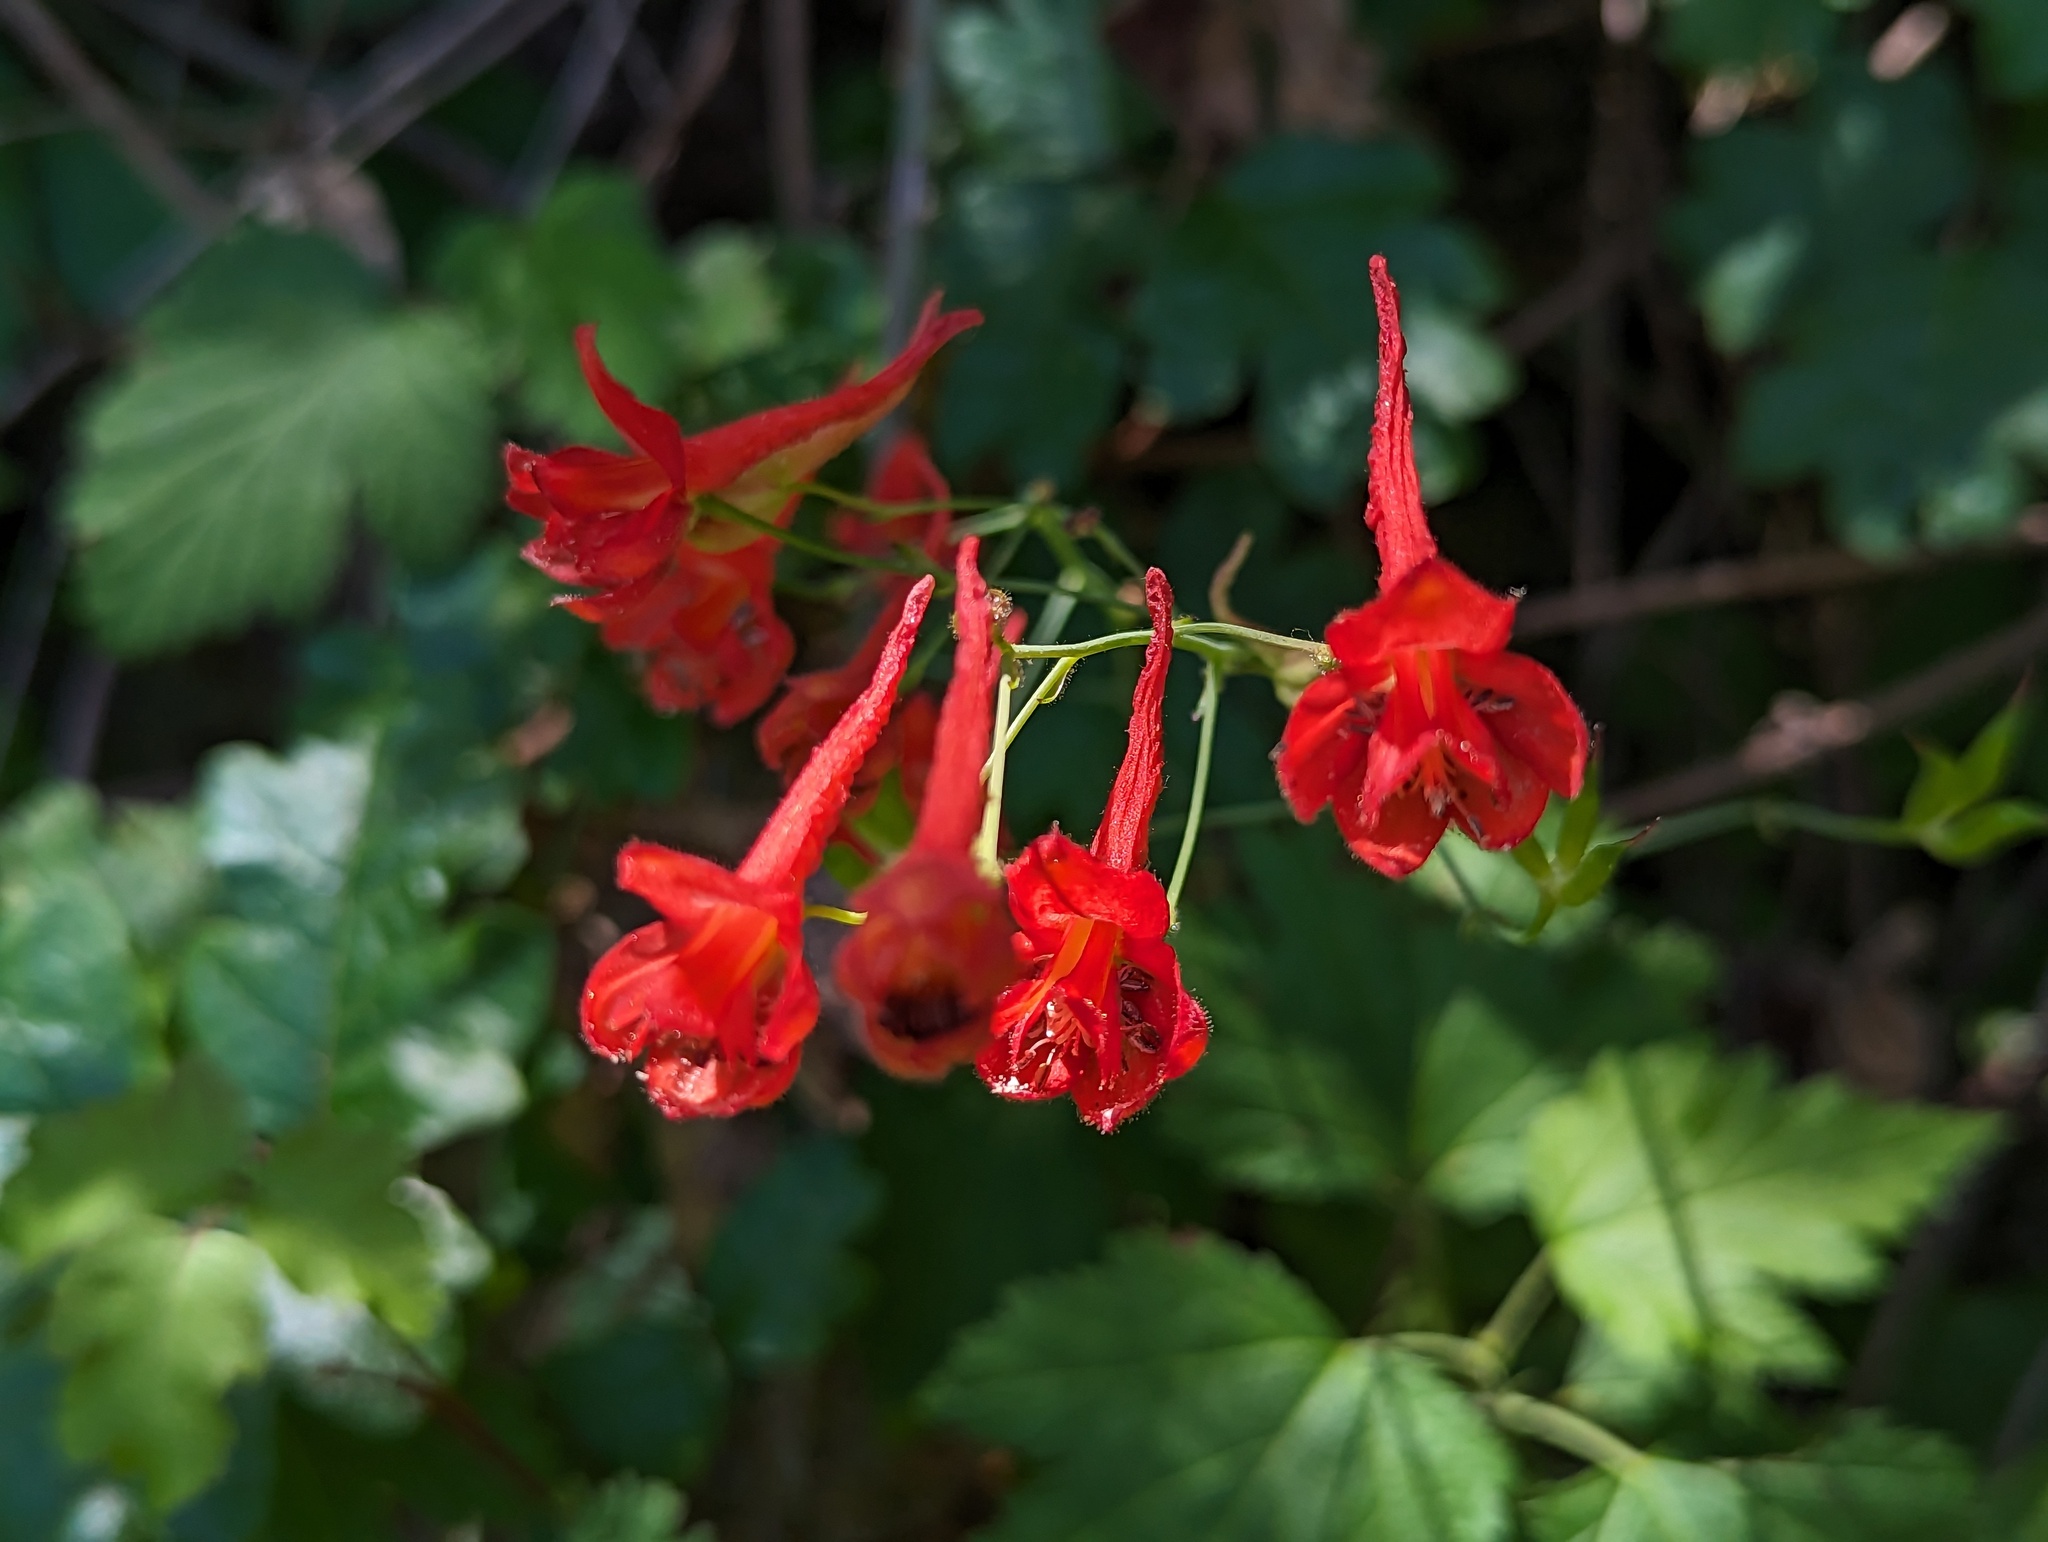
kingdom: Plantae
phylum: Tracheophyta
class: Magnoliopsida
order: Ranunculales
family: Ranunculaceae
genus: Delphinium
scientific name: Delphinium nudicaule
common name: Red larkspur
